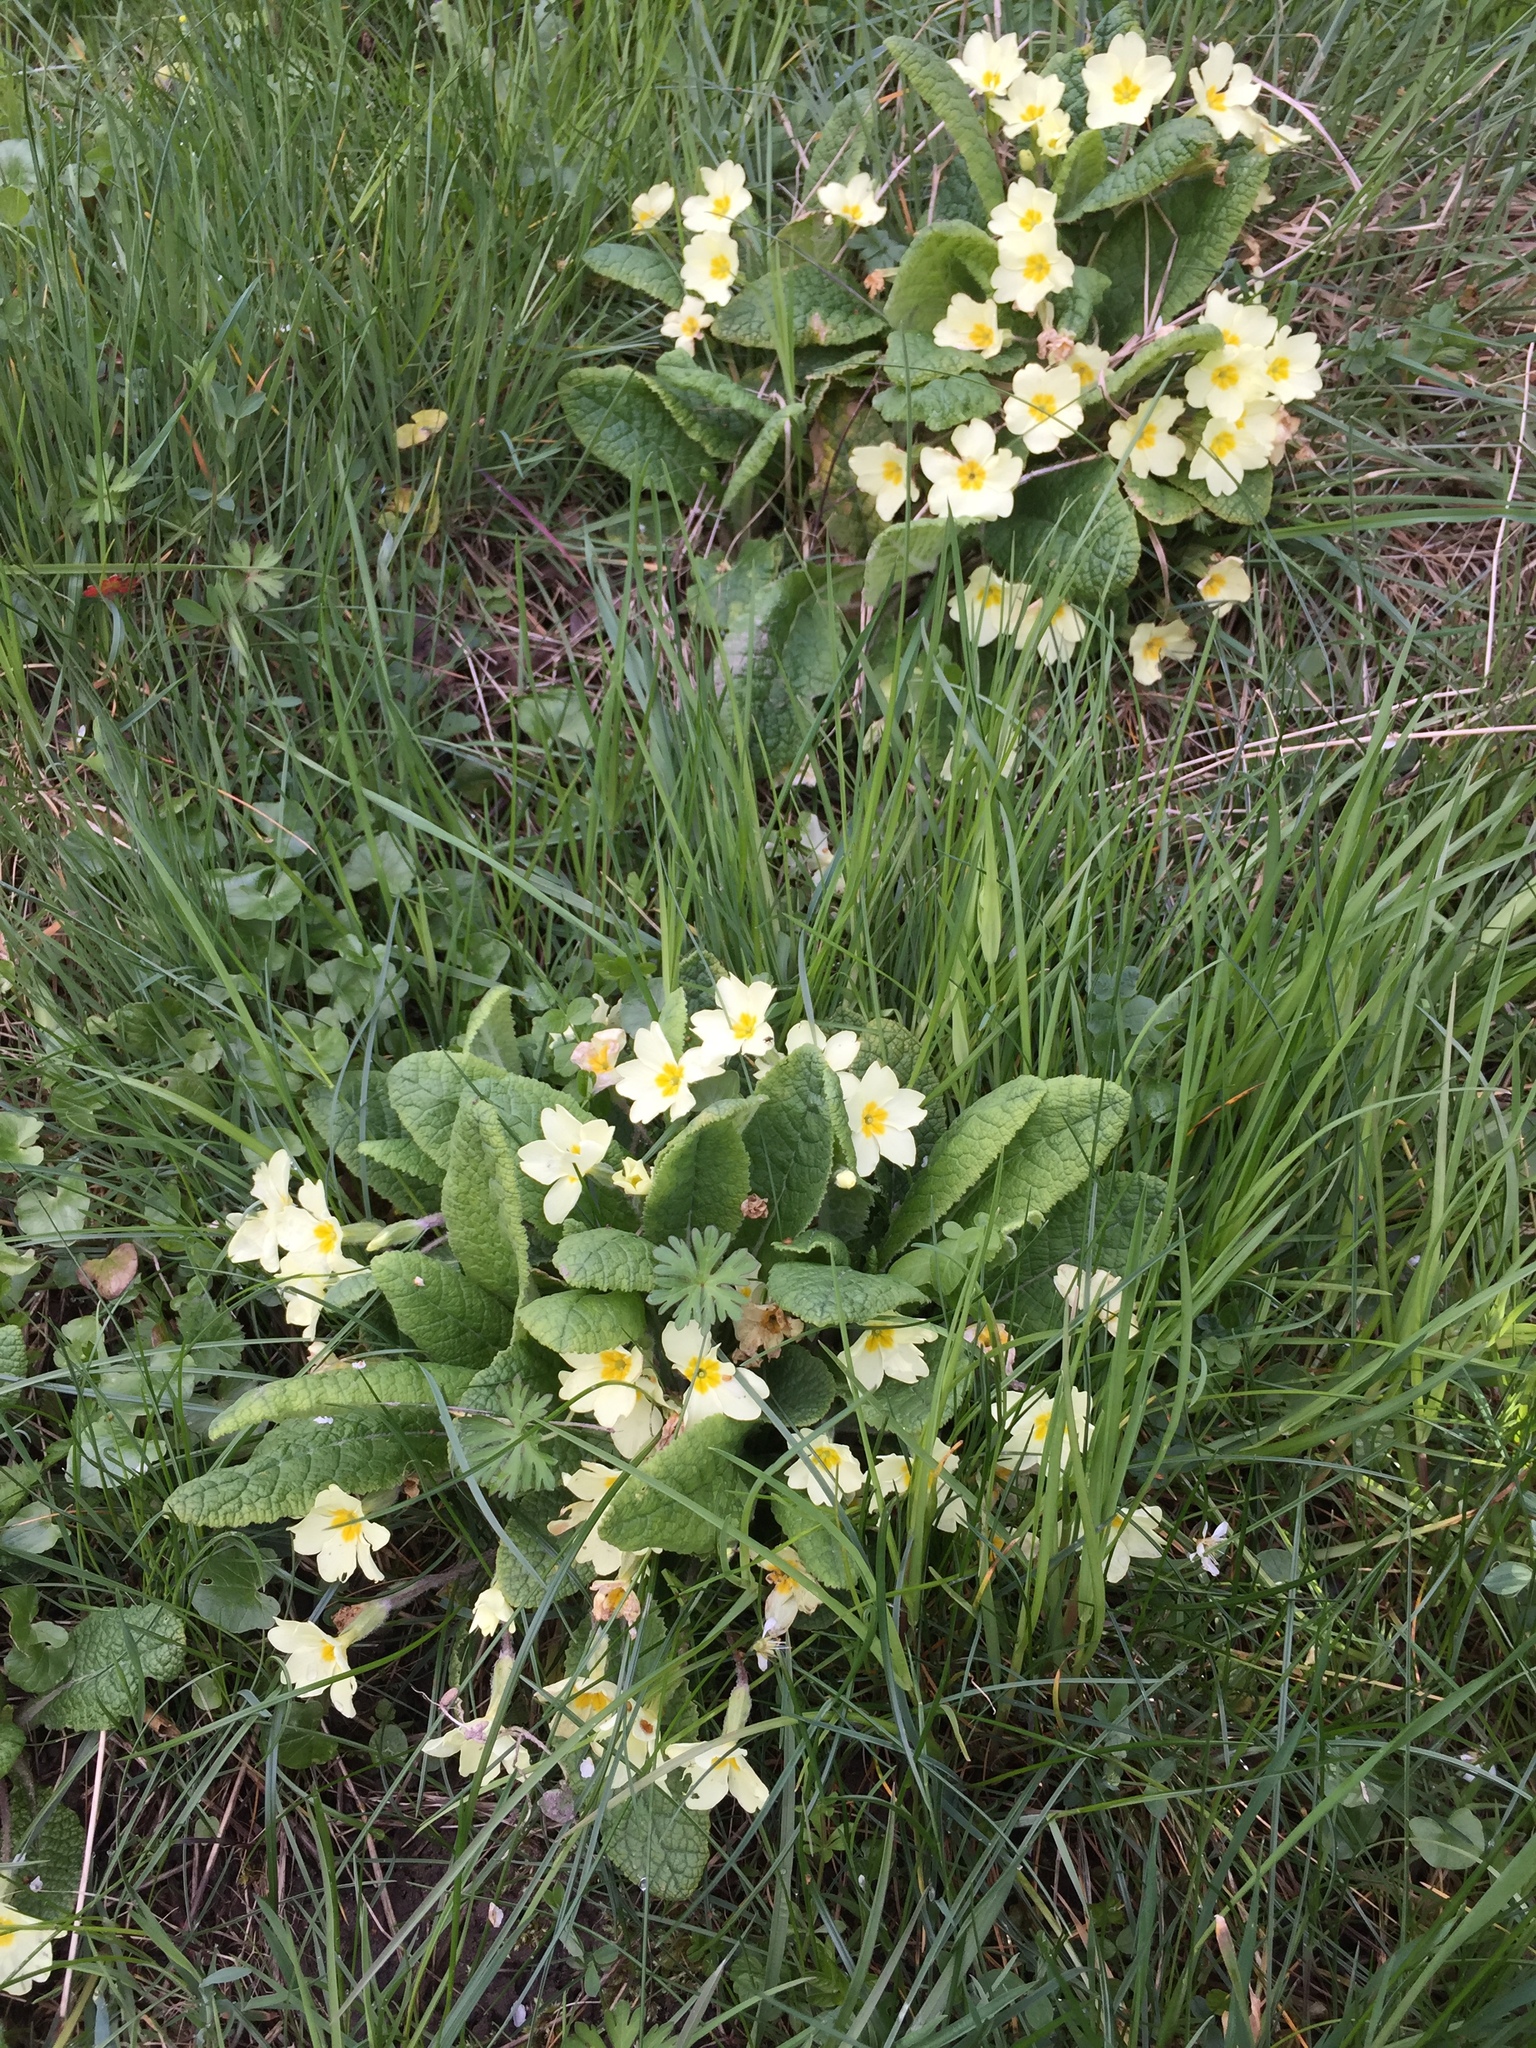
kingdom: Plantae
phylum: Tracheophyta
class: Magnoliopsida
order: Ericales
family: Primulaceae
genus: Primula
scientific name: Primula vulgaris
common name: Primrose
